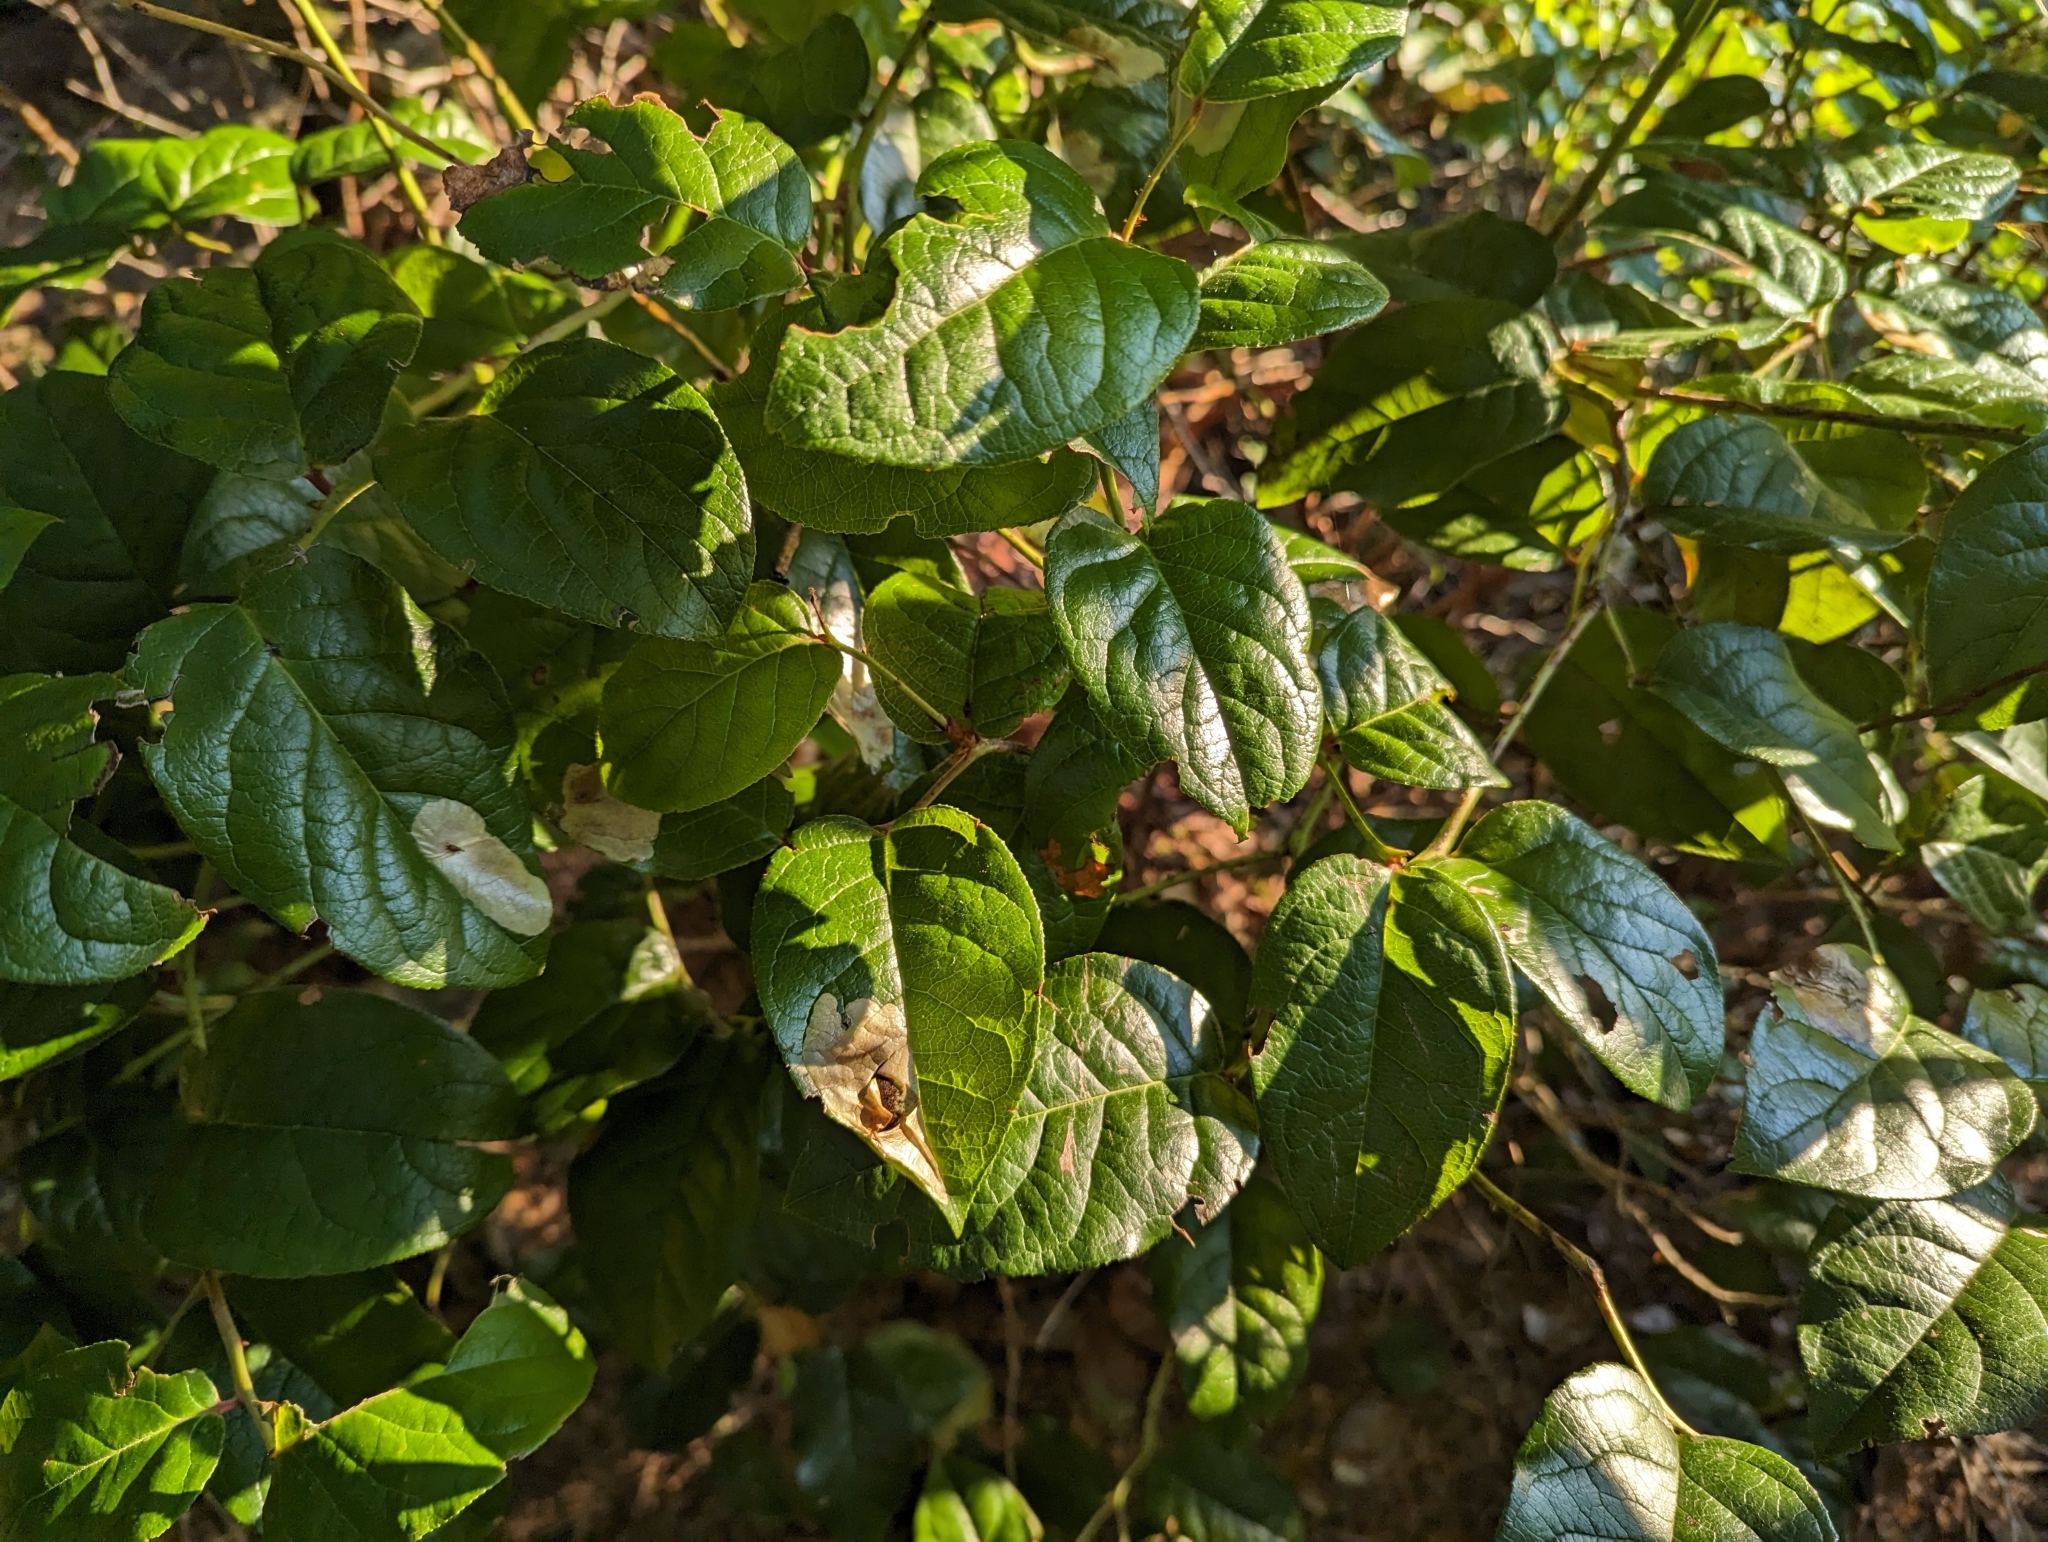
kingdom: Plantae
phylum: Tracheophyta
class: Magnoliopsida
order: Ericales
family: Ericaceae
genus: Gaultheria
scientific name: Gaultheria shallon
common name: Shallon
